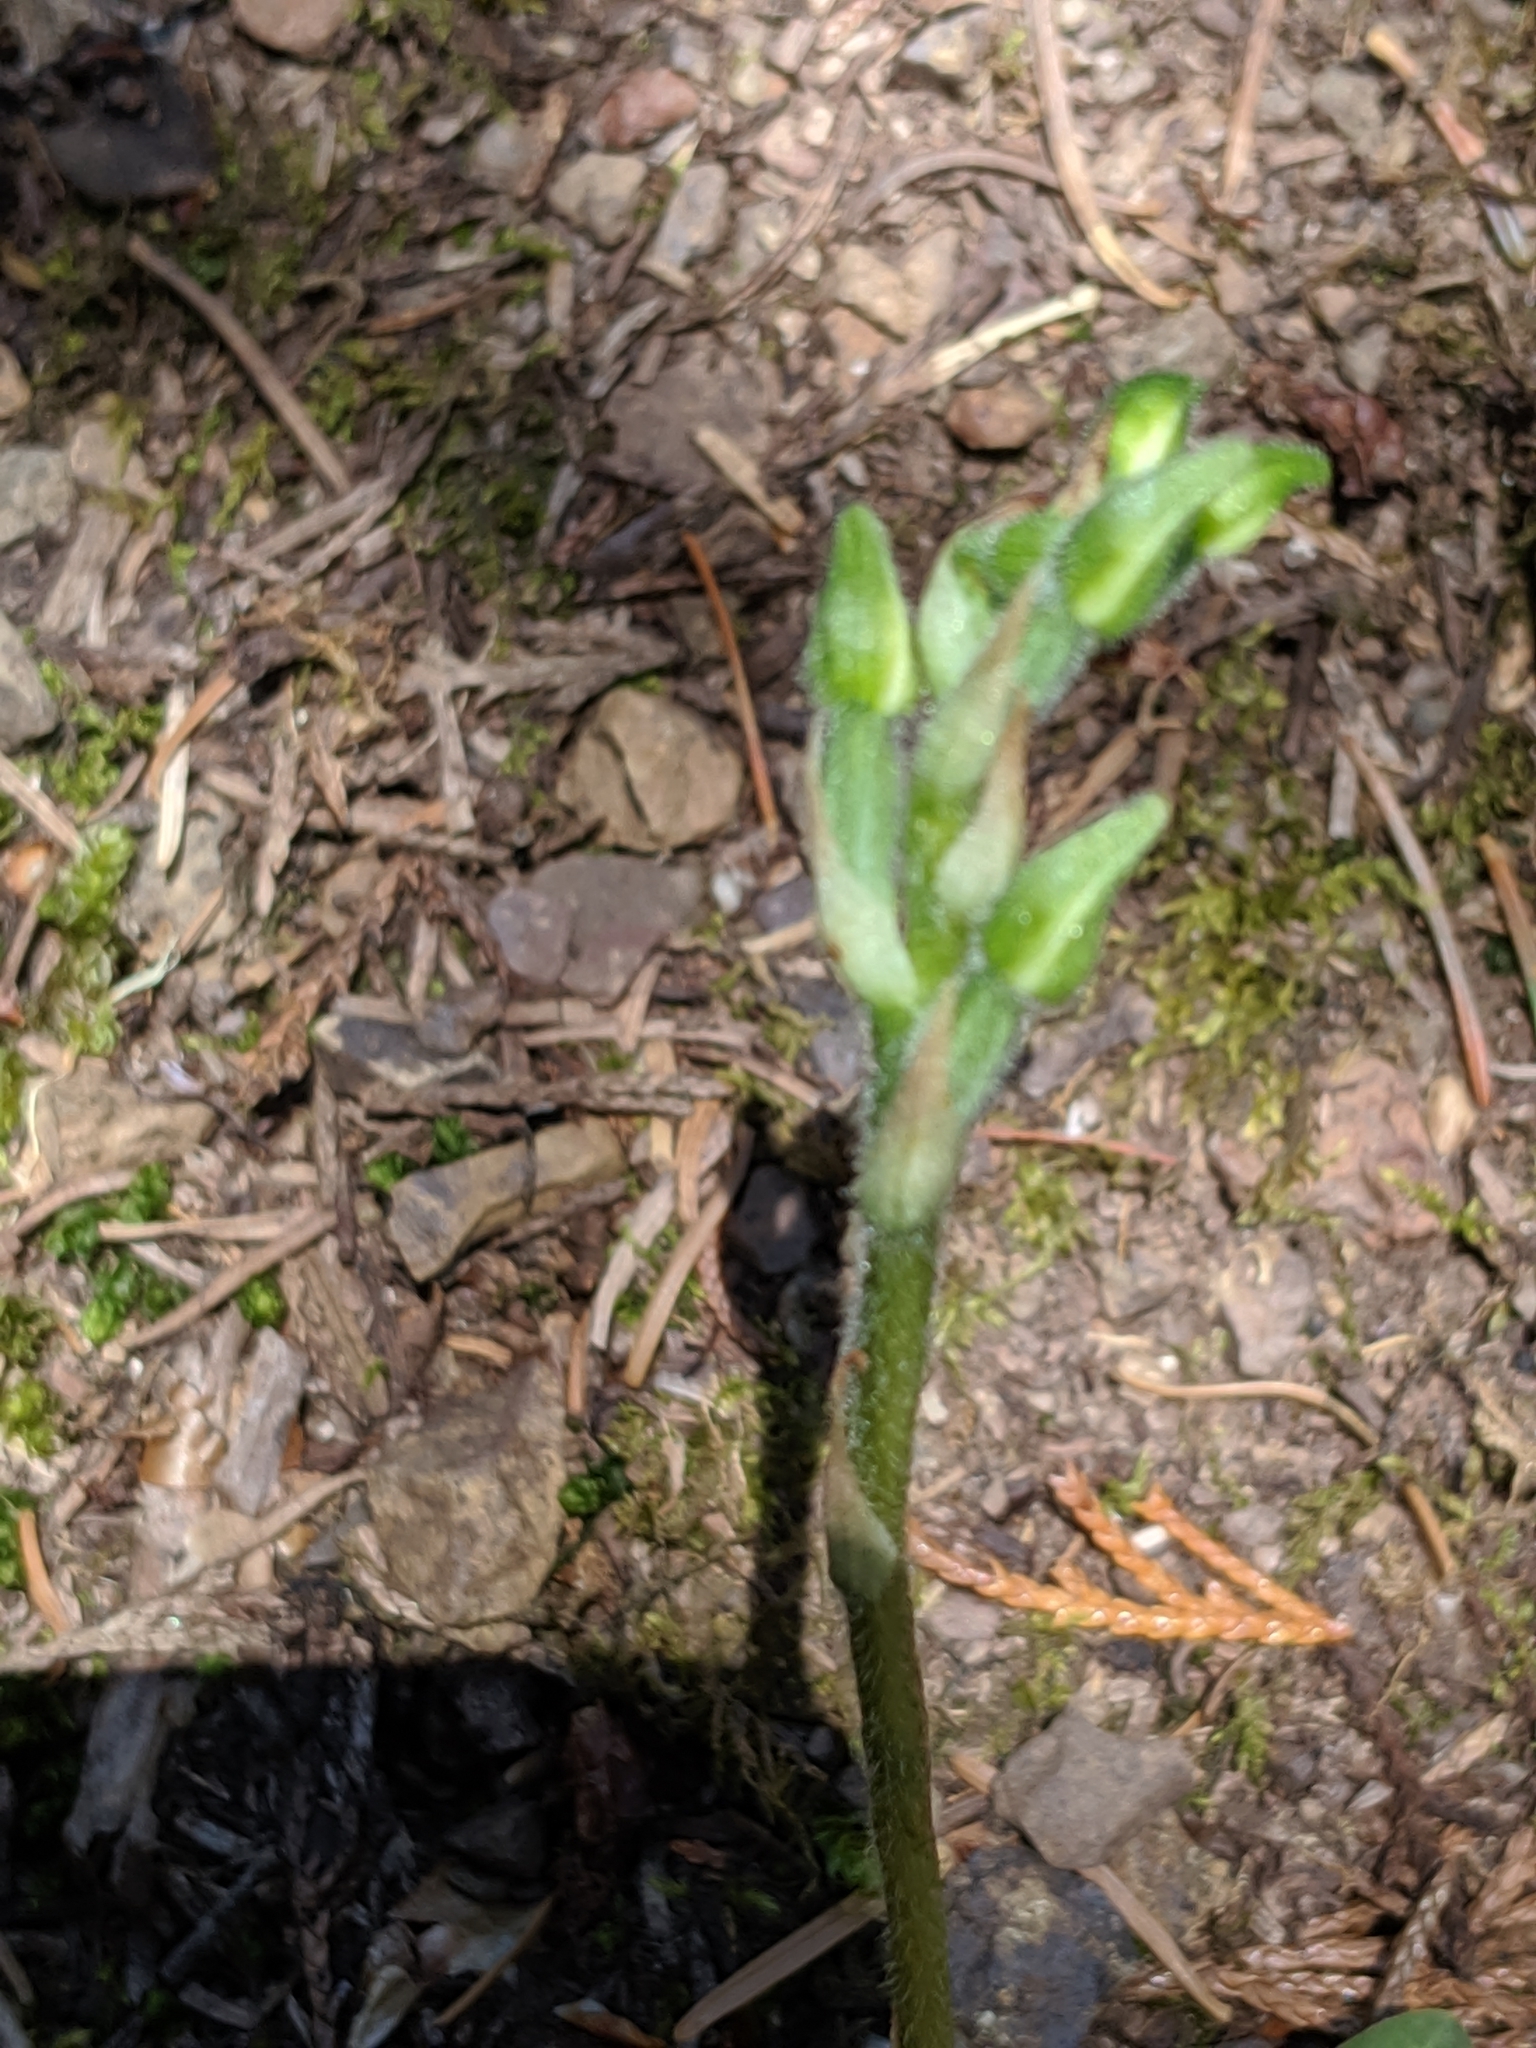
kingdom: Plantae
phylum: Tracheophyta
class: Liliopsida
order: Asparagales
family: Orchidaceae
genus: Goodyera
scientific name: Goodyera oblongifolia
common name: Giant rattlesnake-plantain
